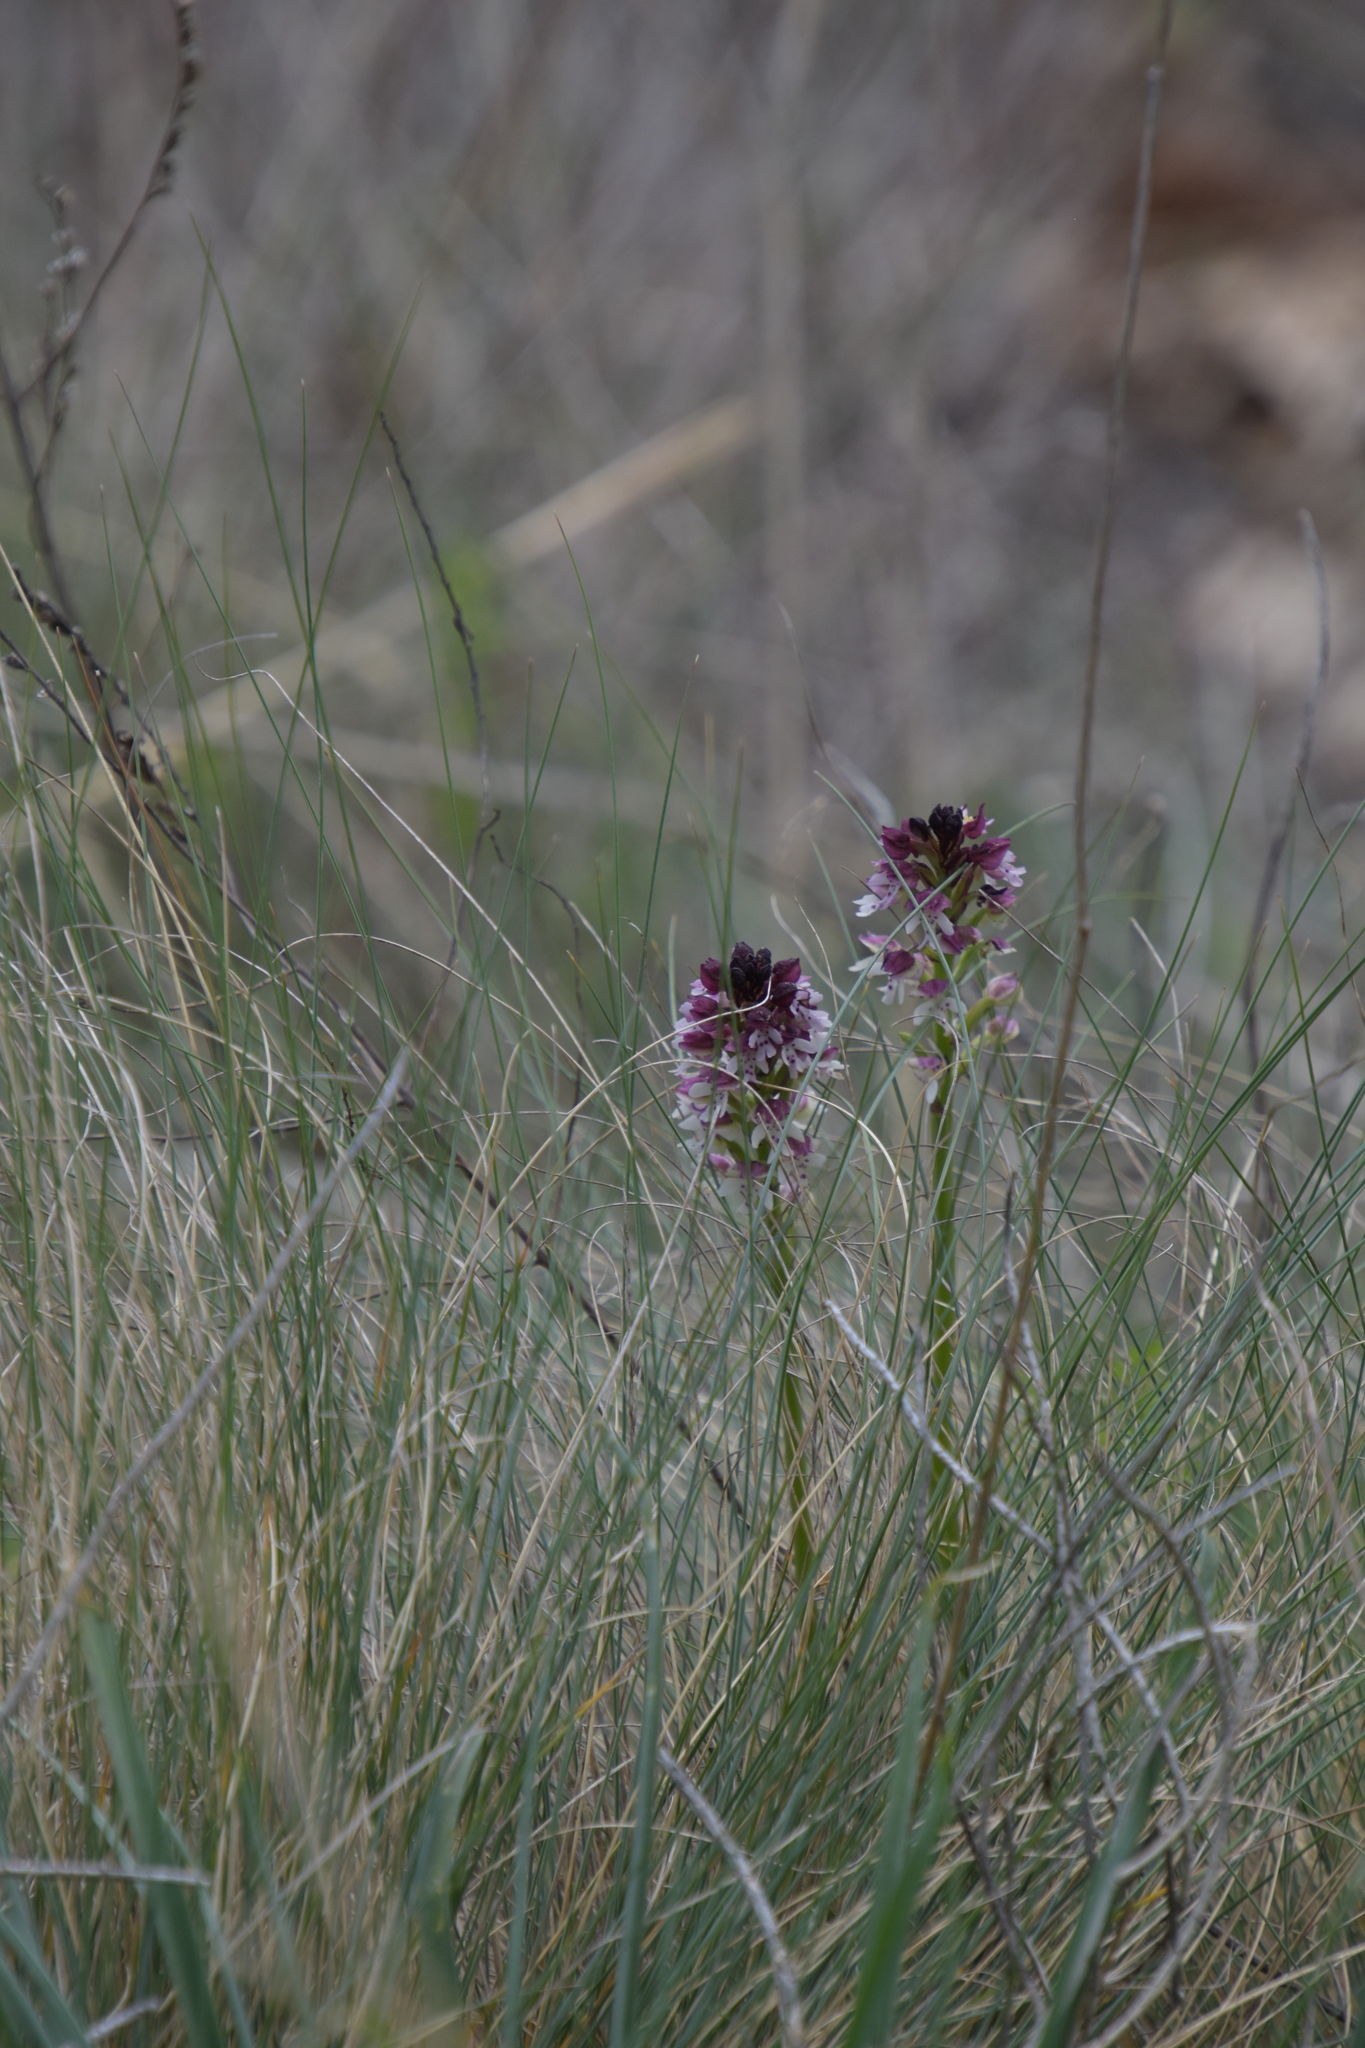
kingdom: Plantae
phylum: Tracheophyta
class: Liliopsida
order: Asparagales
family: Orchidaceae
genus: Neotinea
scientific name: Neotinea ustulata
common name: Burnt orchid
